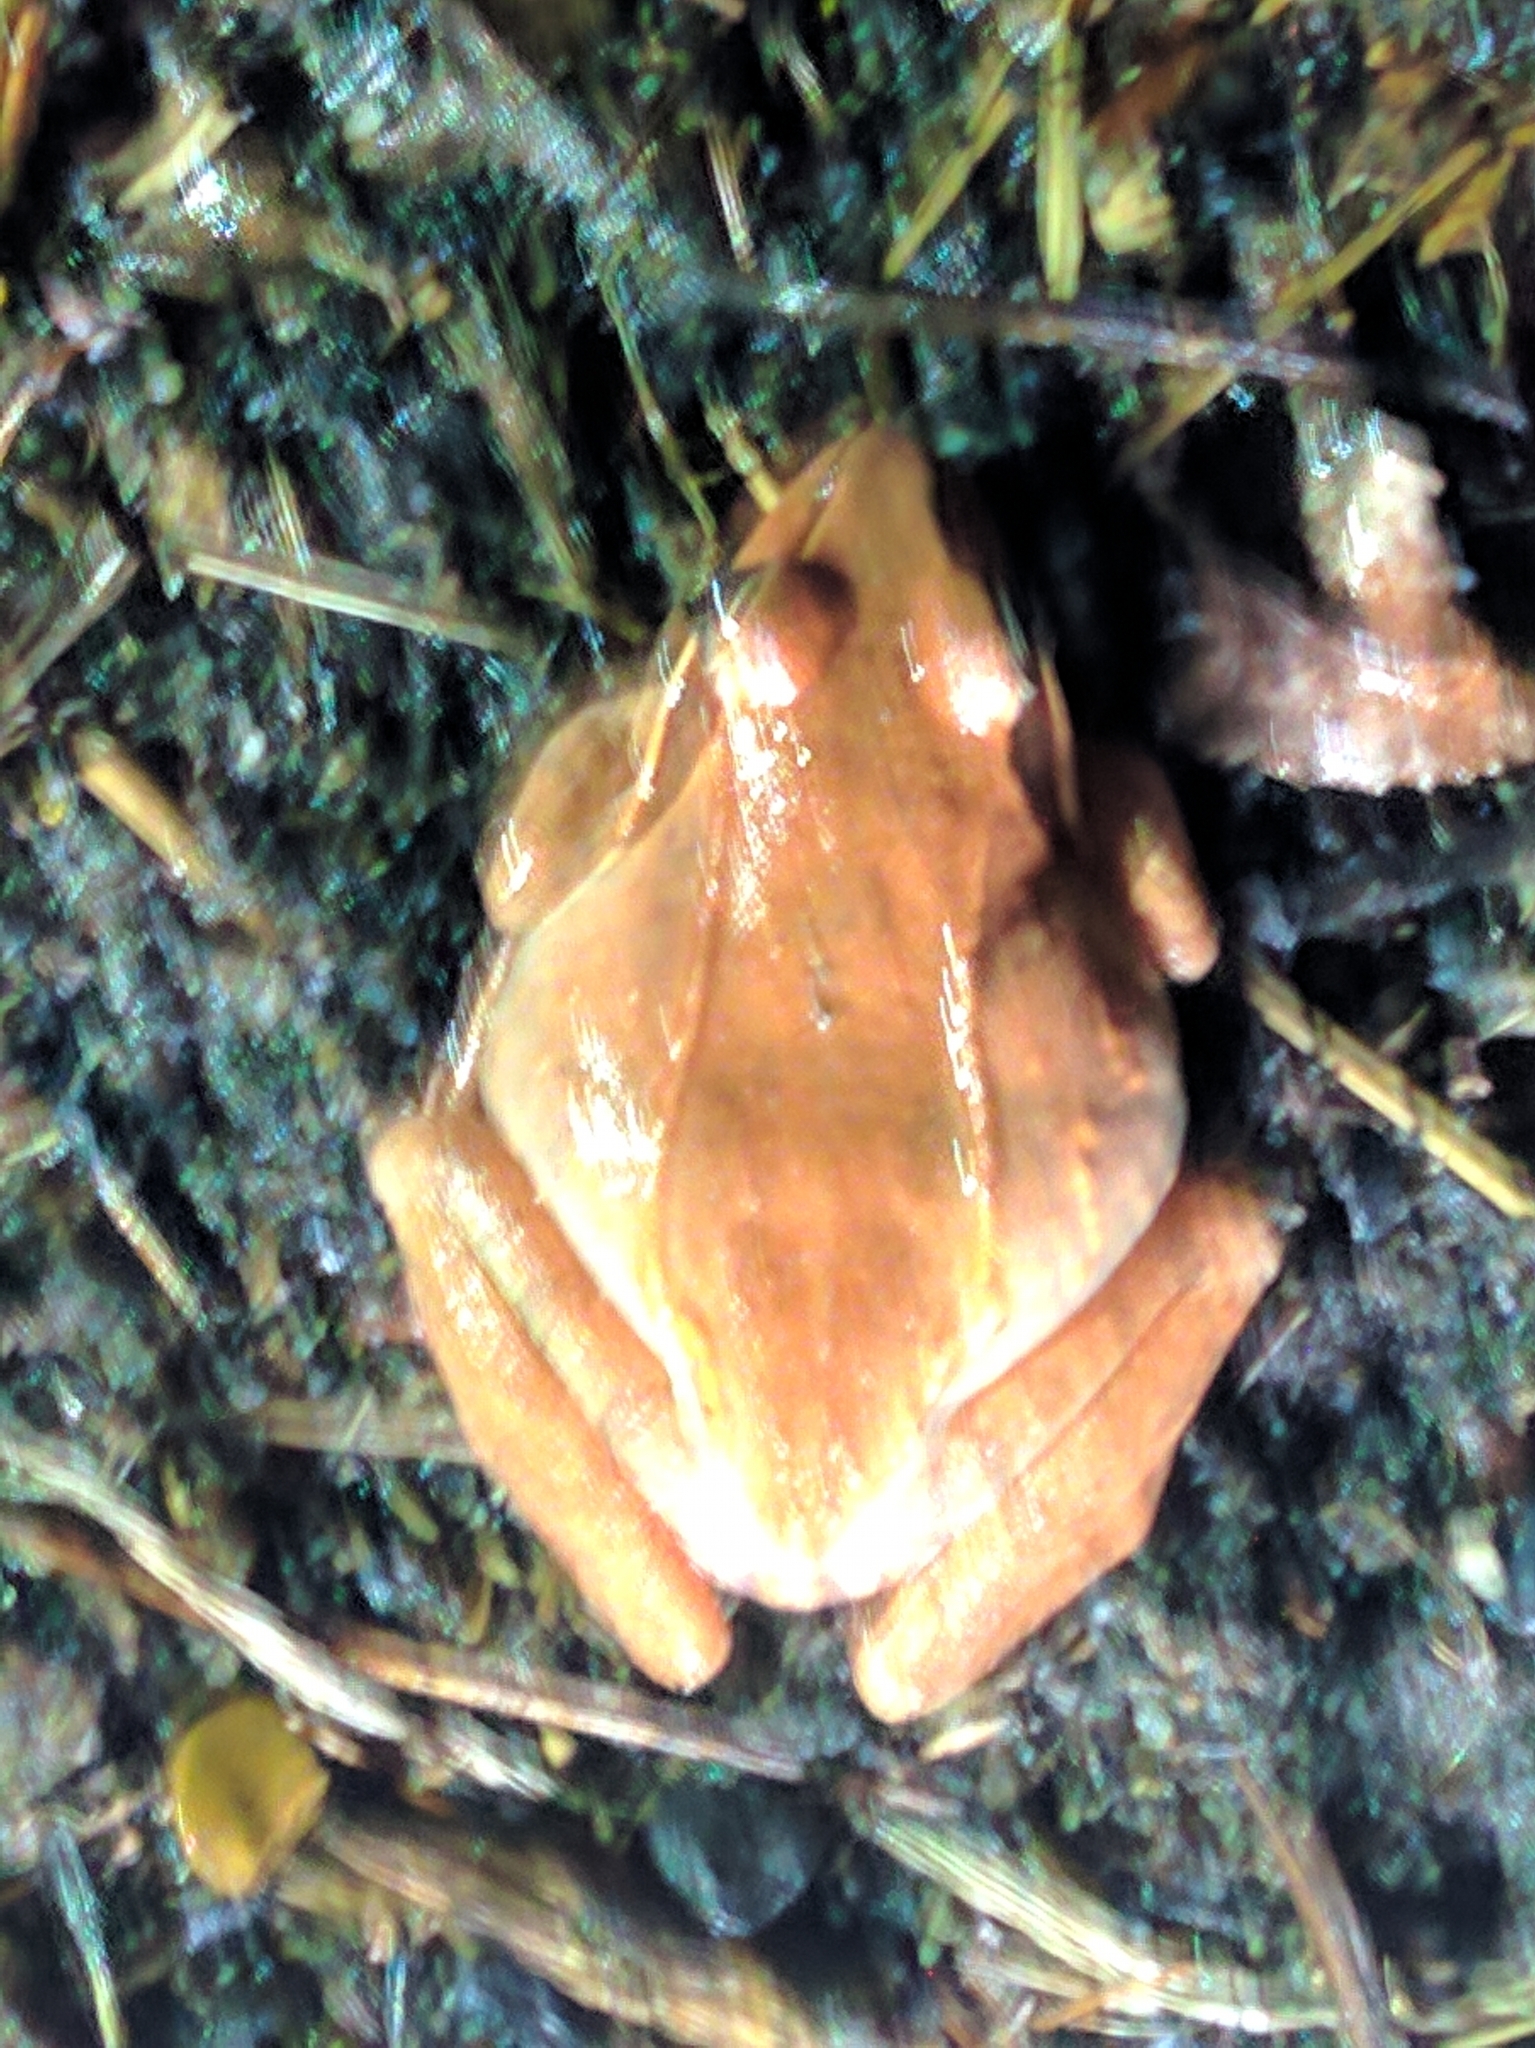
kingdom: Animalia
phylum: Chordata
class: Amphibia
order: Anura
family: Ranidae
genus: Lithobates
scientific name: Lithobates sylvaticus
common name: Wood frog
